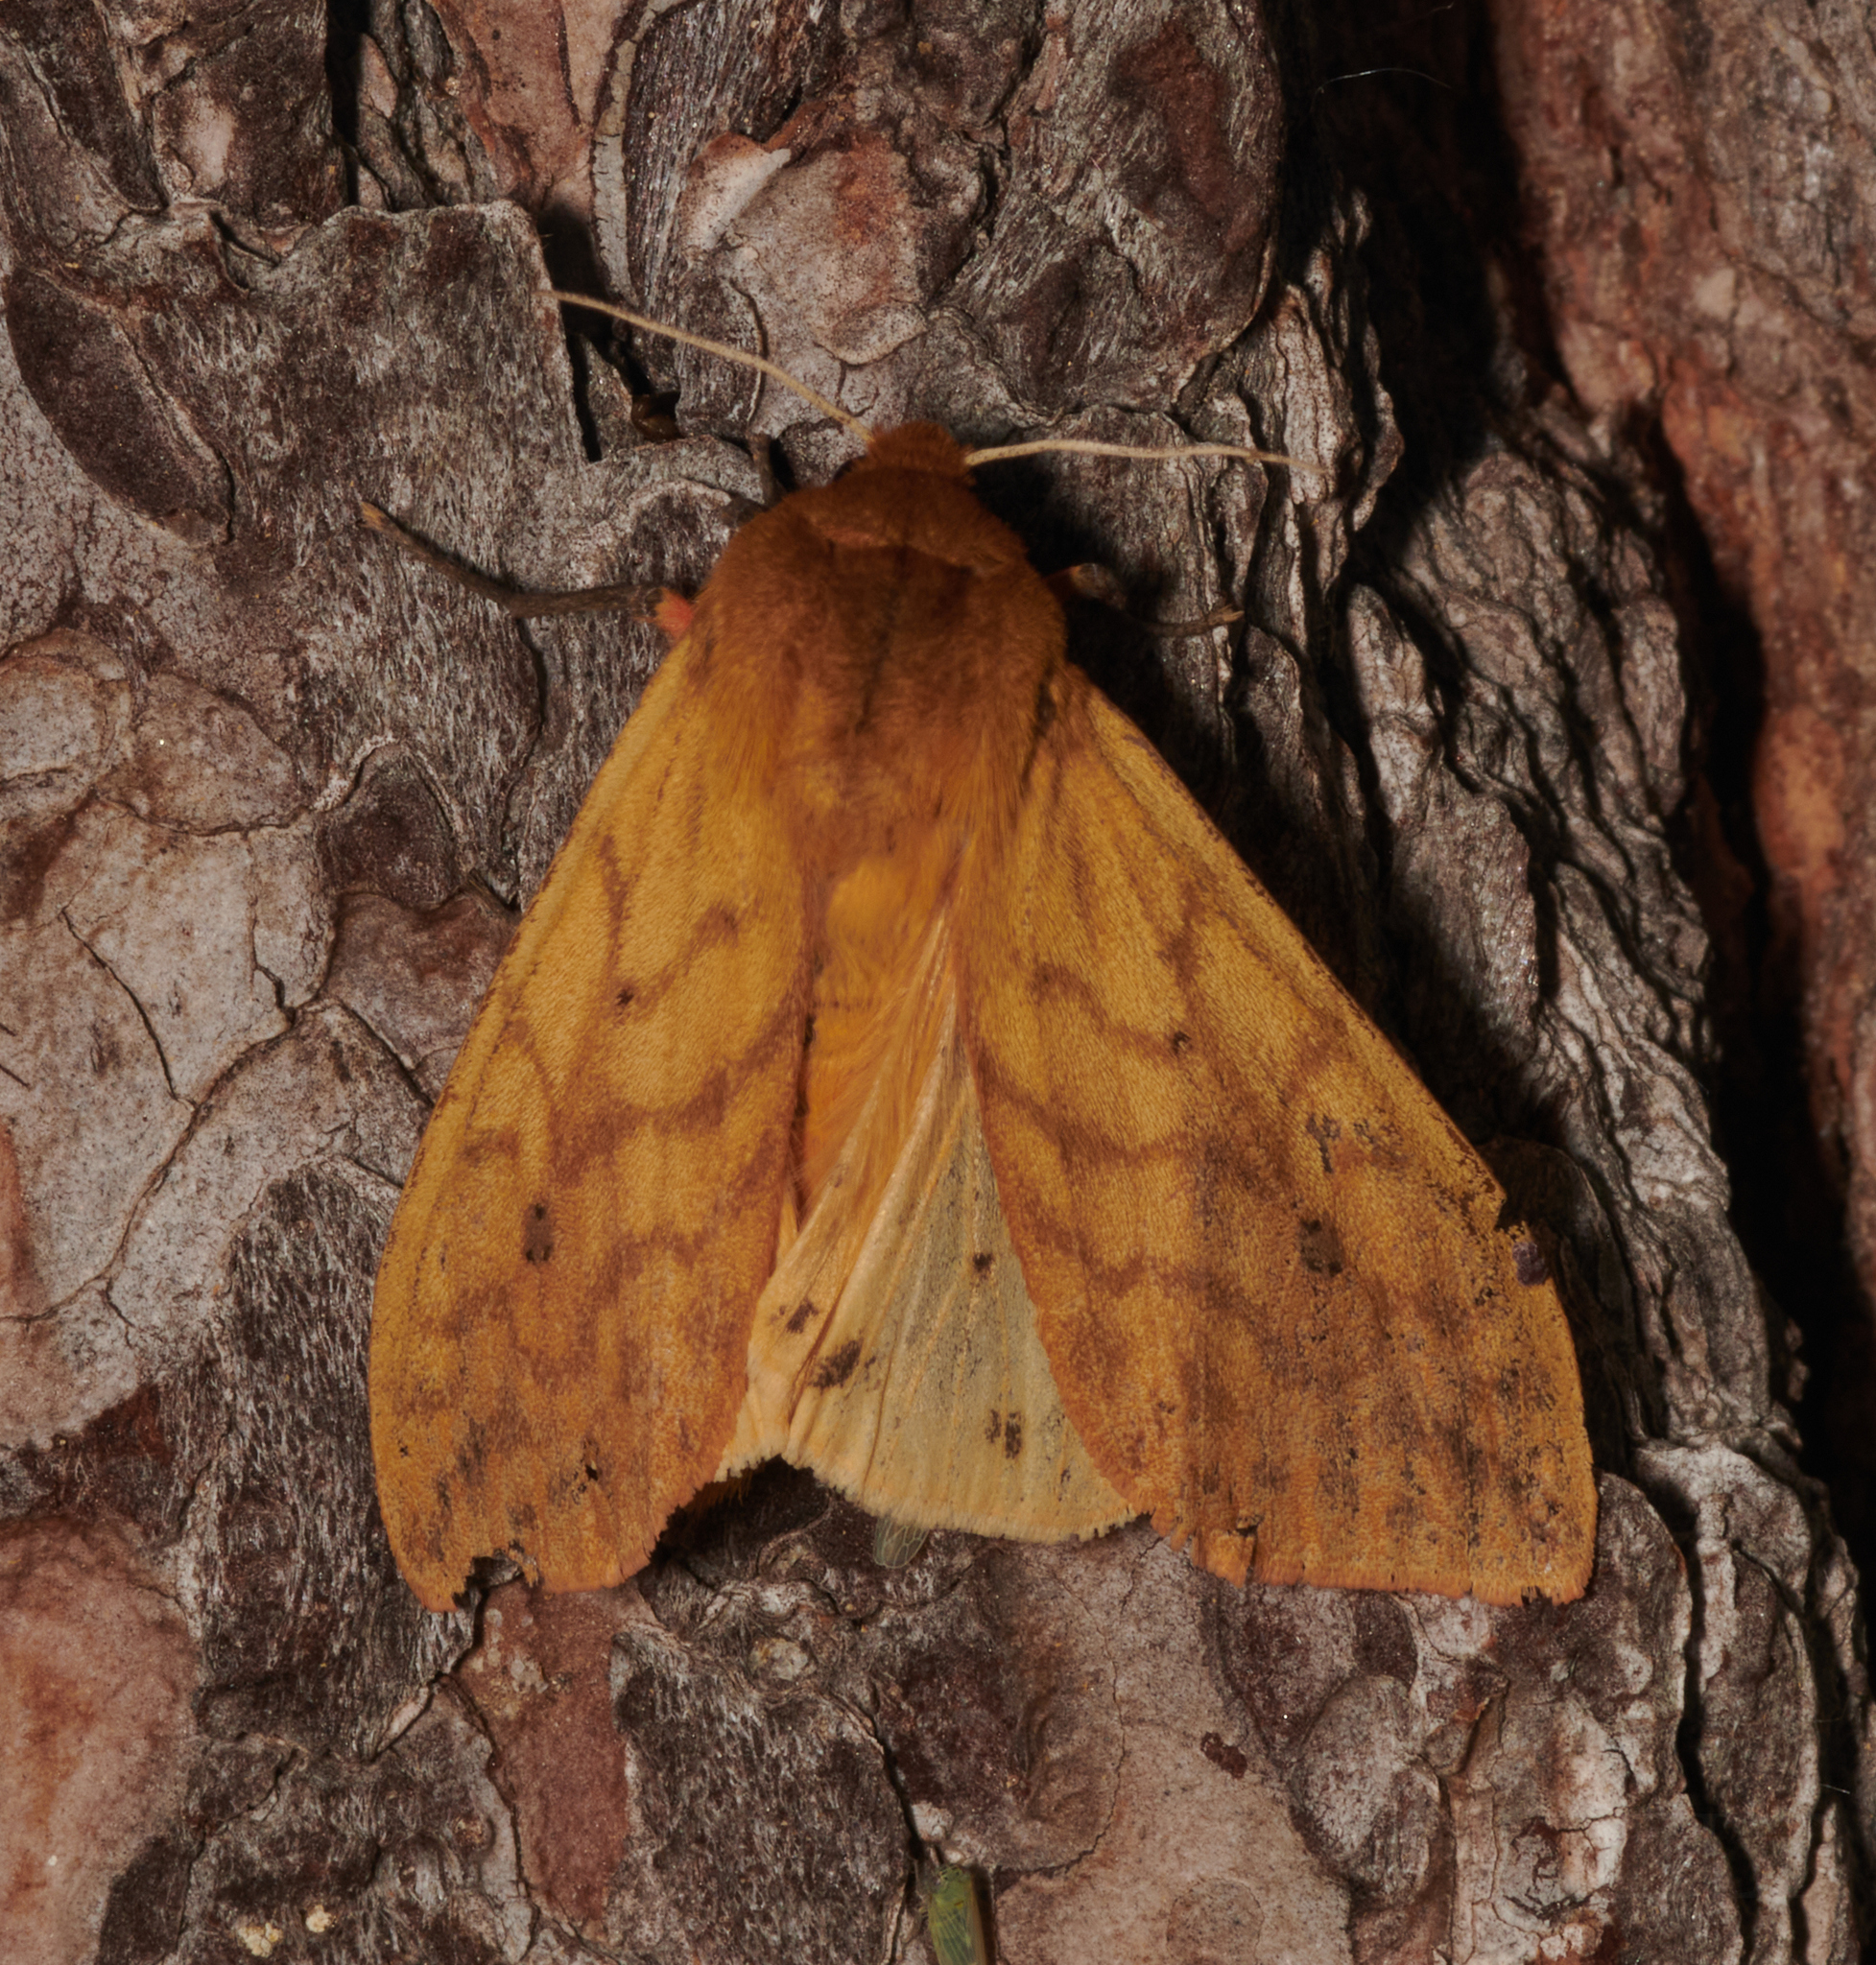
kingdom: Animalia
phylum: Arthropoda
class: Insecta
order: Lepidoptera
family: Erebidae
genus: Pyrrharctia
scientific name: Pyrrharctia isabella
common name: Isabella tiger moth
